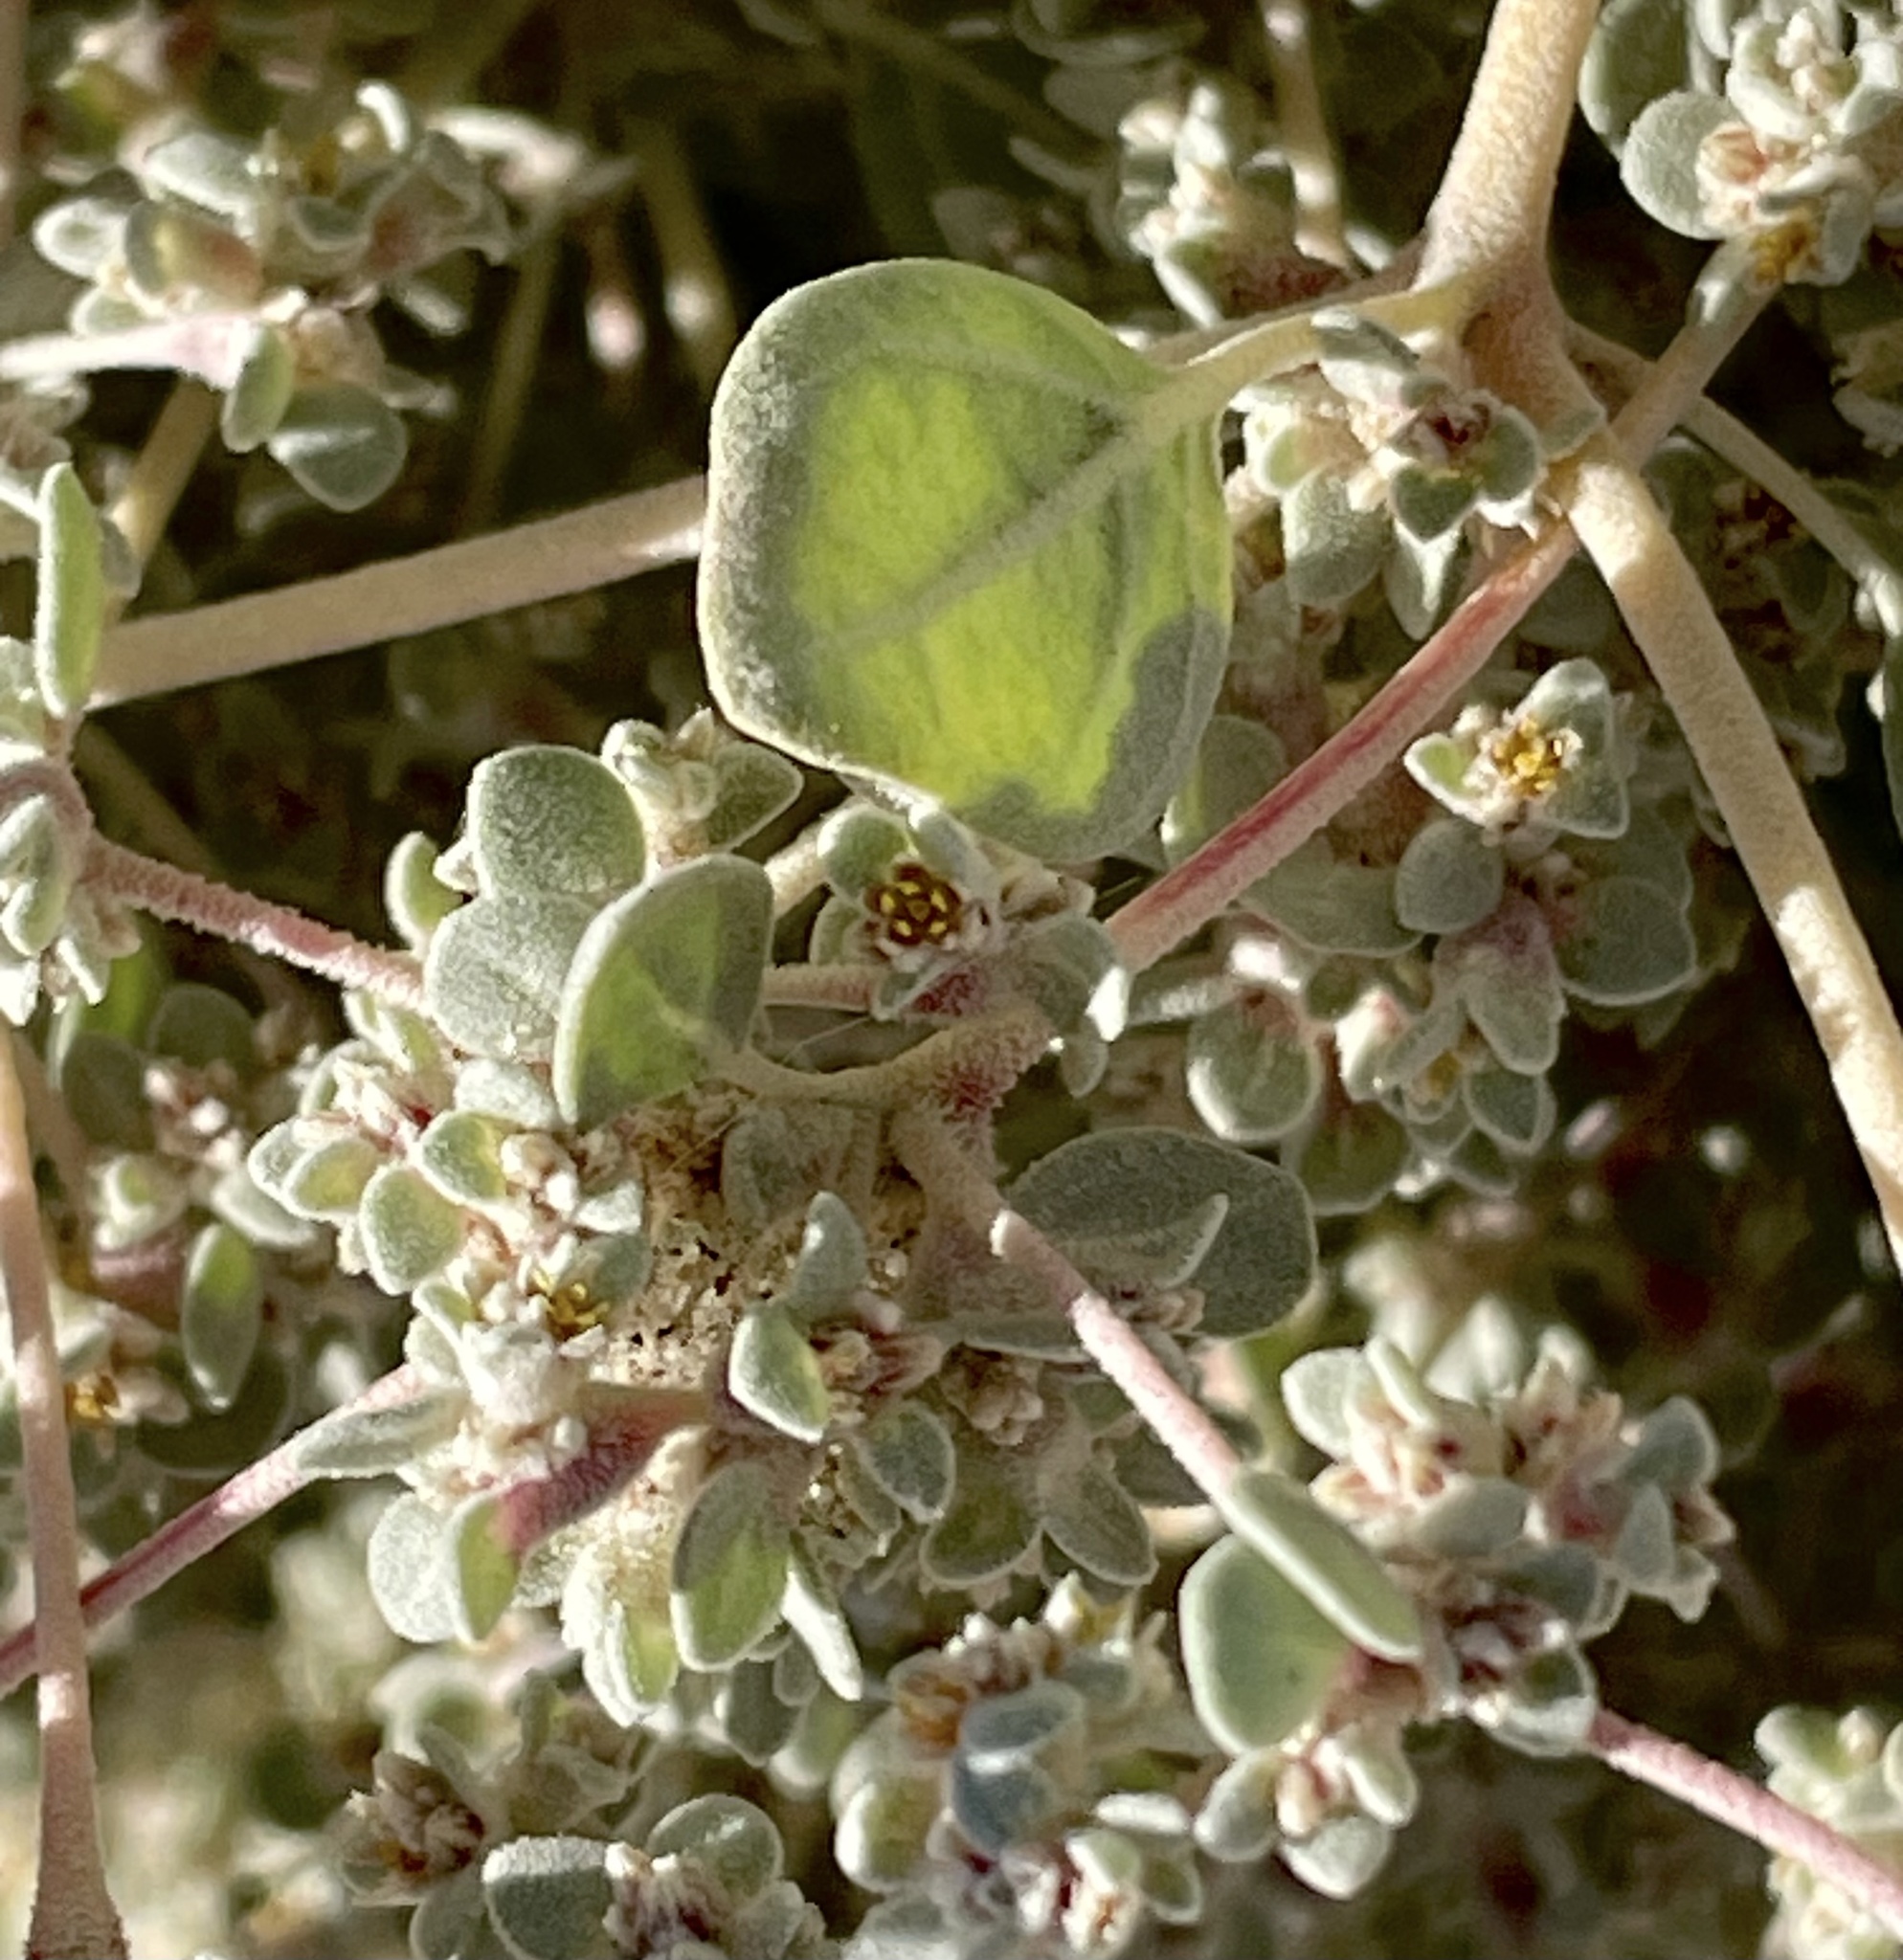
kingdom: Plantae
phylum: Tracheophyta
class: Magnoliopsida
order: Caryophyllales
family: Amaranthaceae
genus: Tidestromia
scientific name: Tidestromia suffruticosa
